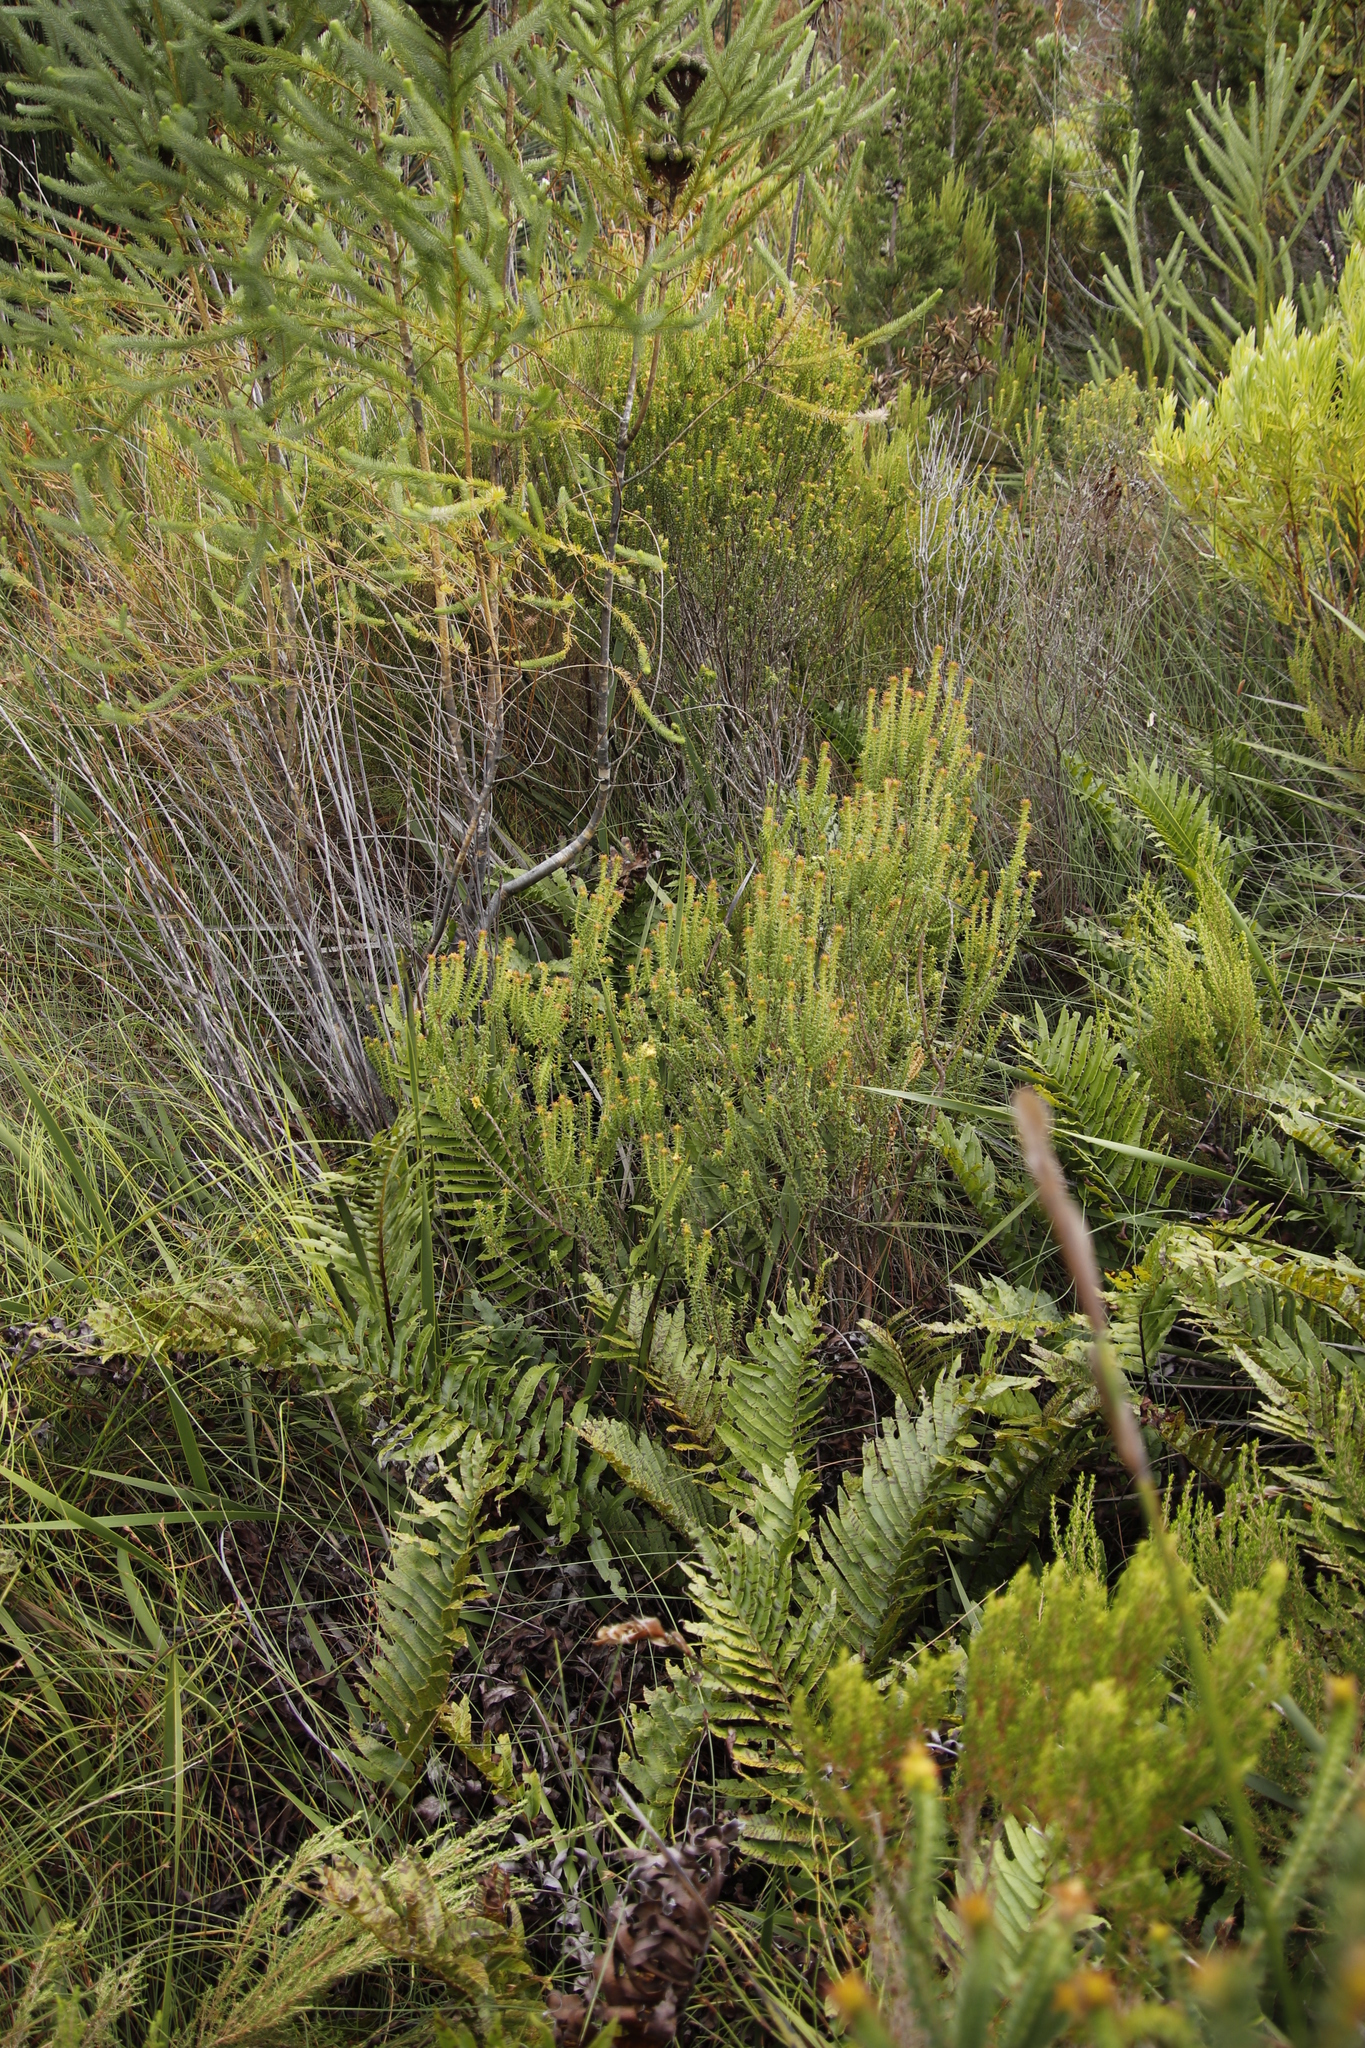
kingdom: Plantae
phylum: Tracheophyta
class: Magnoliopsida
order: Bruniales
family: Bruniaceae
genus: Berzelia
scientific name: Berzelia albiflora
